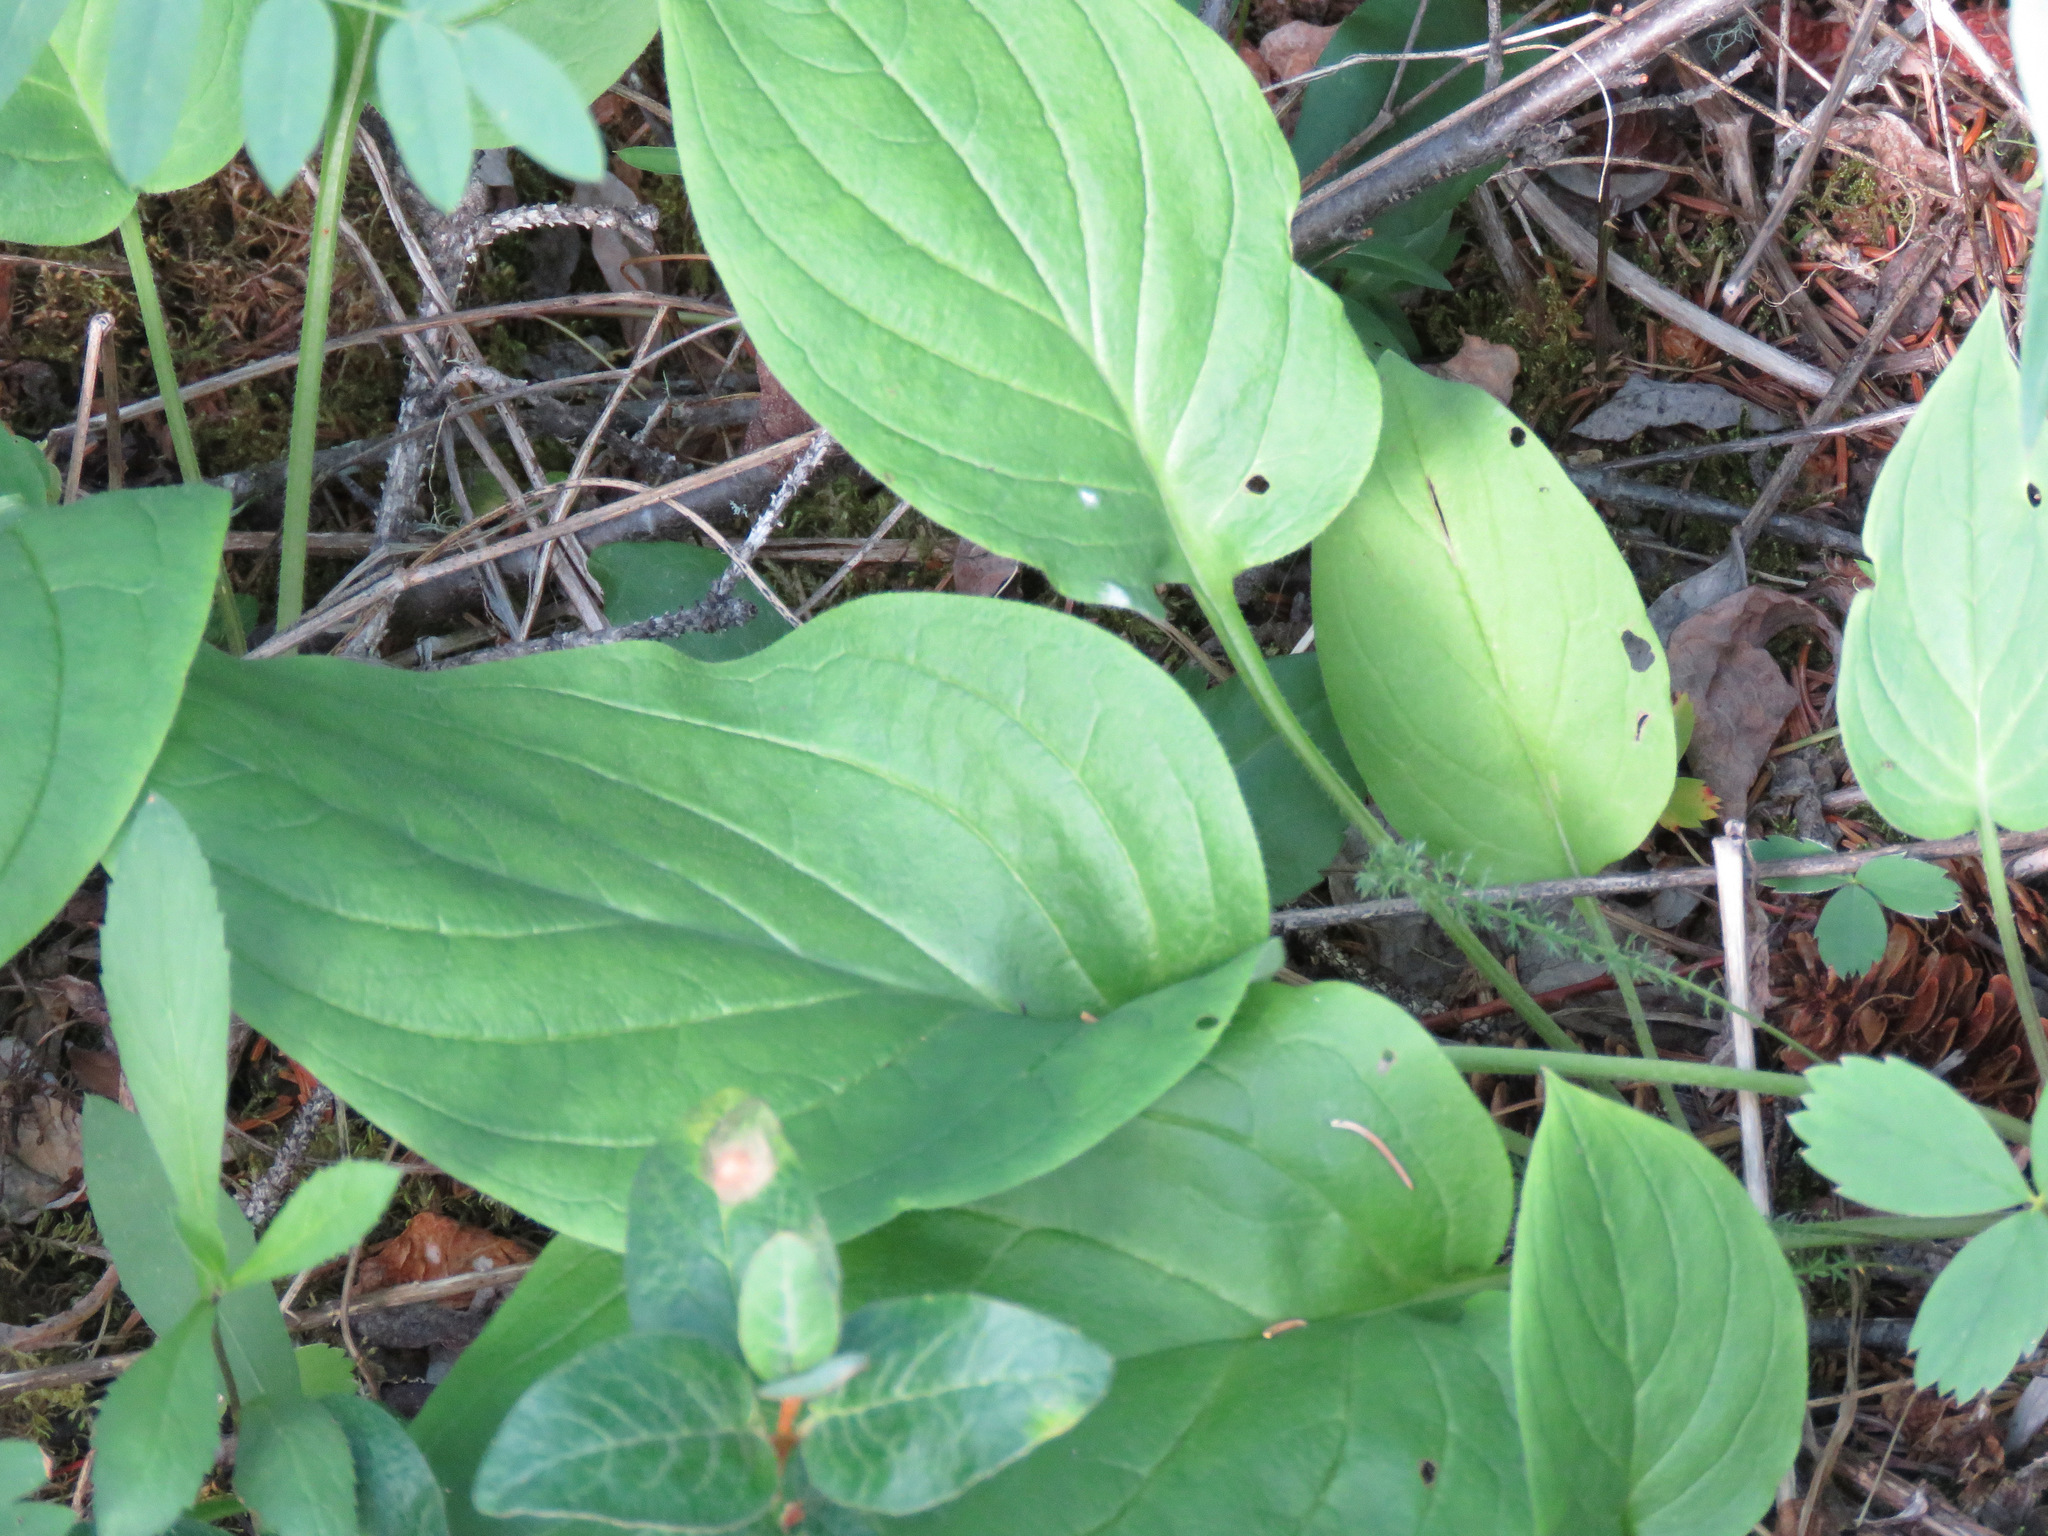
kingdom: Plantae
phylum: Tracheophyta
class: Magnoliopsida
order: Boraginales
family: Boraginaceae
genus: Mertensia
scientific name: Mertensia paniculata
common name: Panicled bluebells
